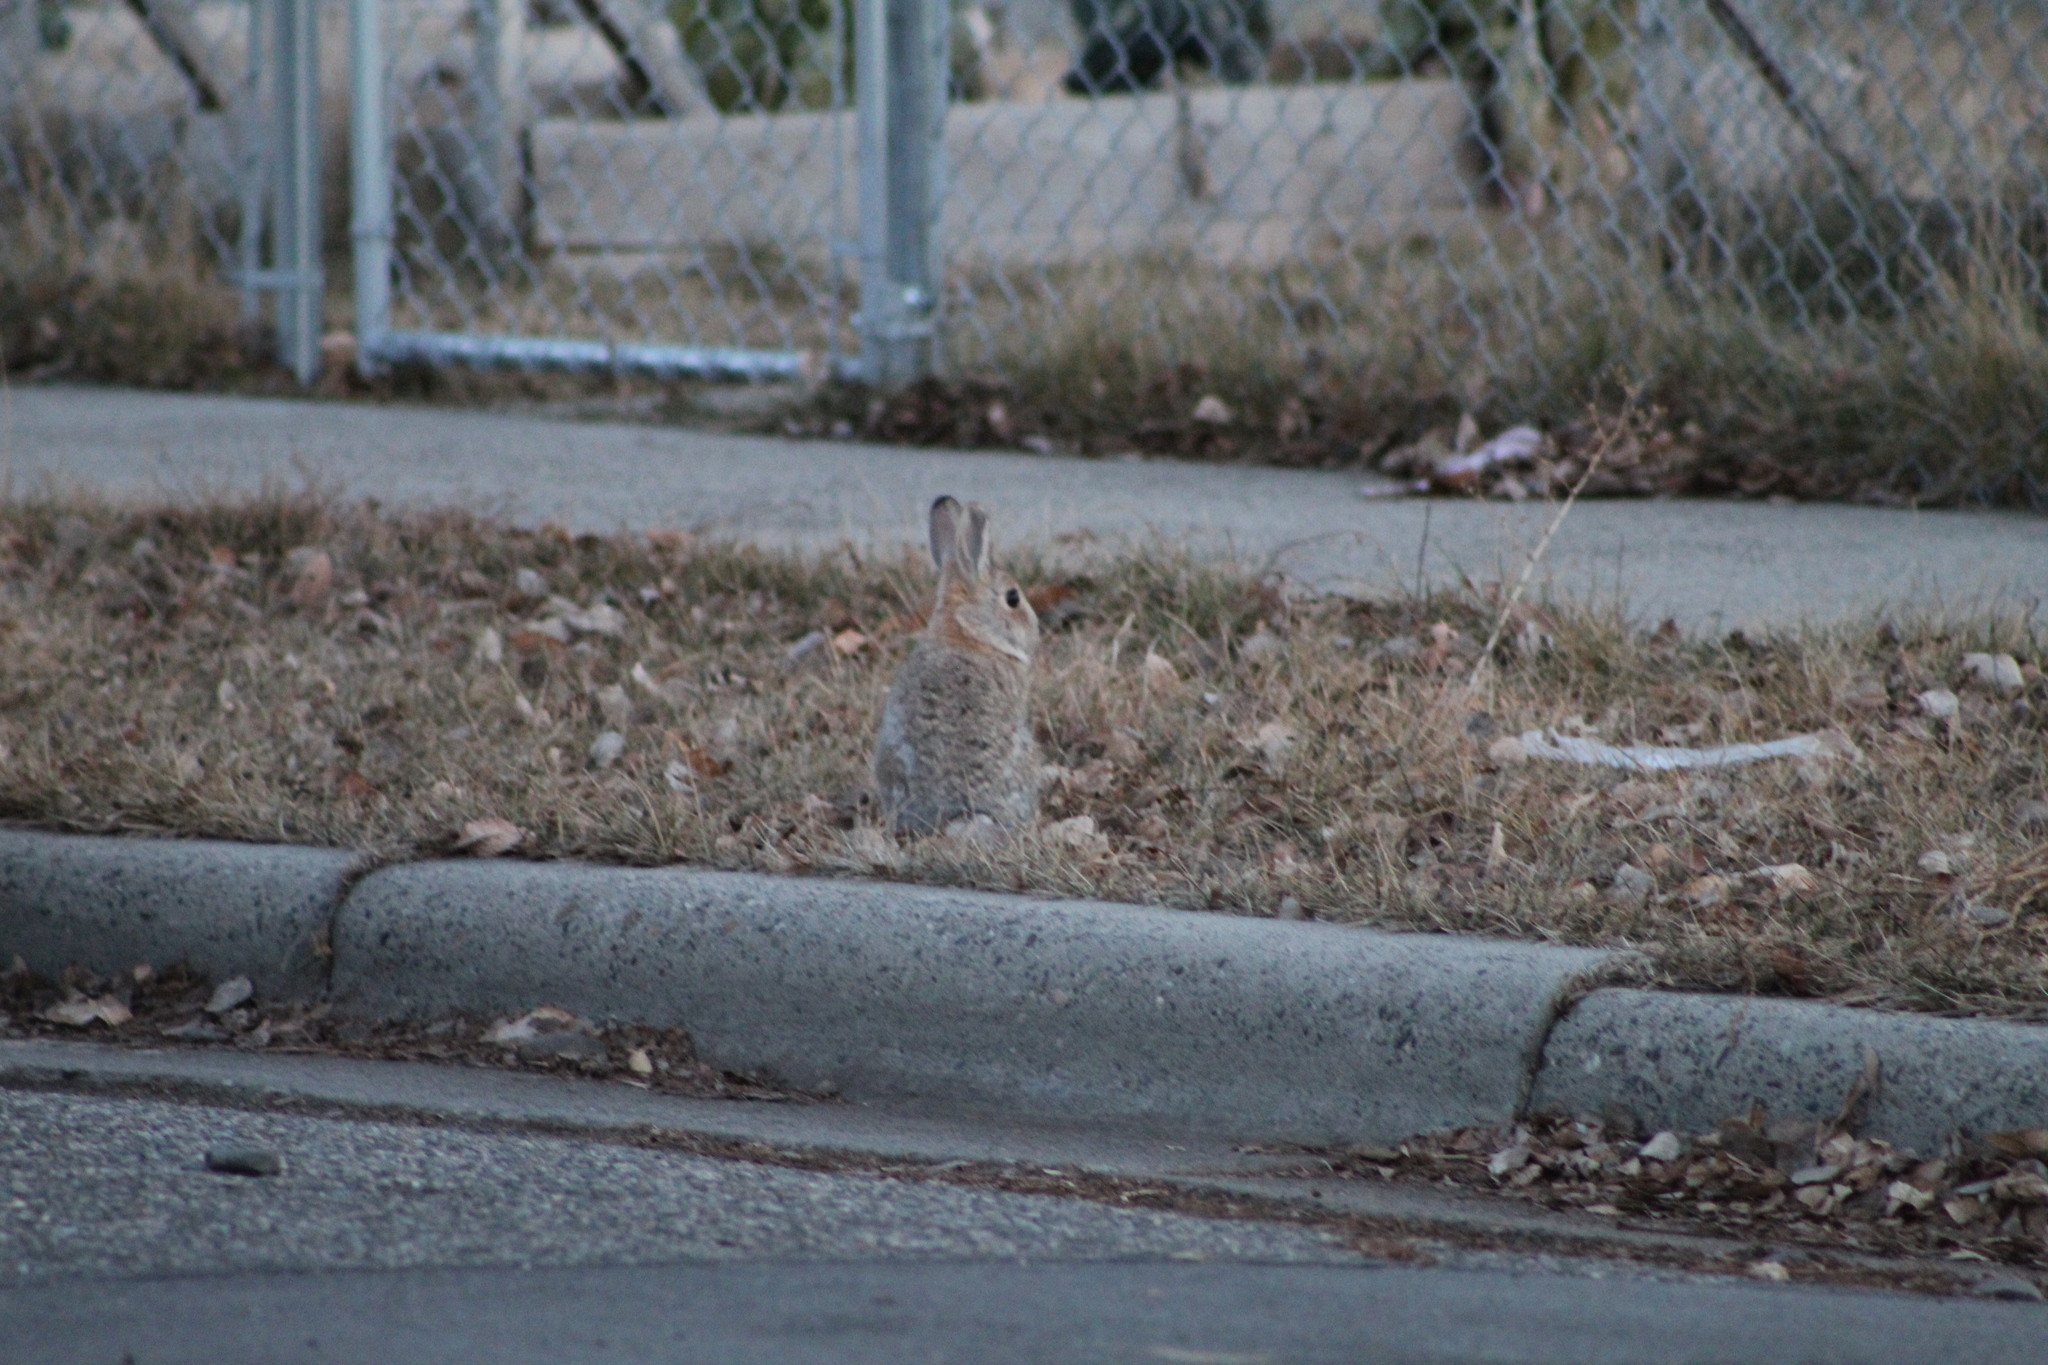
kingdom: Animalia
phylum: Chordata
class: Mammalia
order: Lagomorpha
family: Leporidae
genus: Sylvilagus
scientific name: Sylvilagus nuttallii
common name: Mountain cottontail
